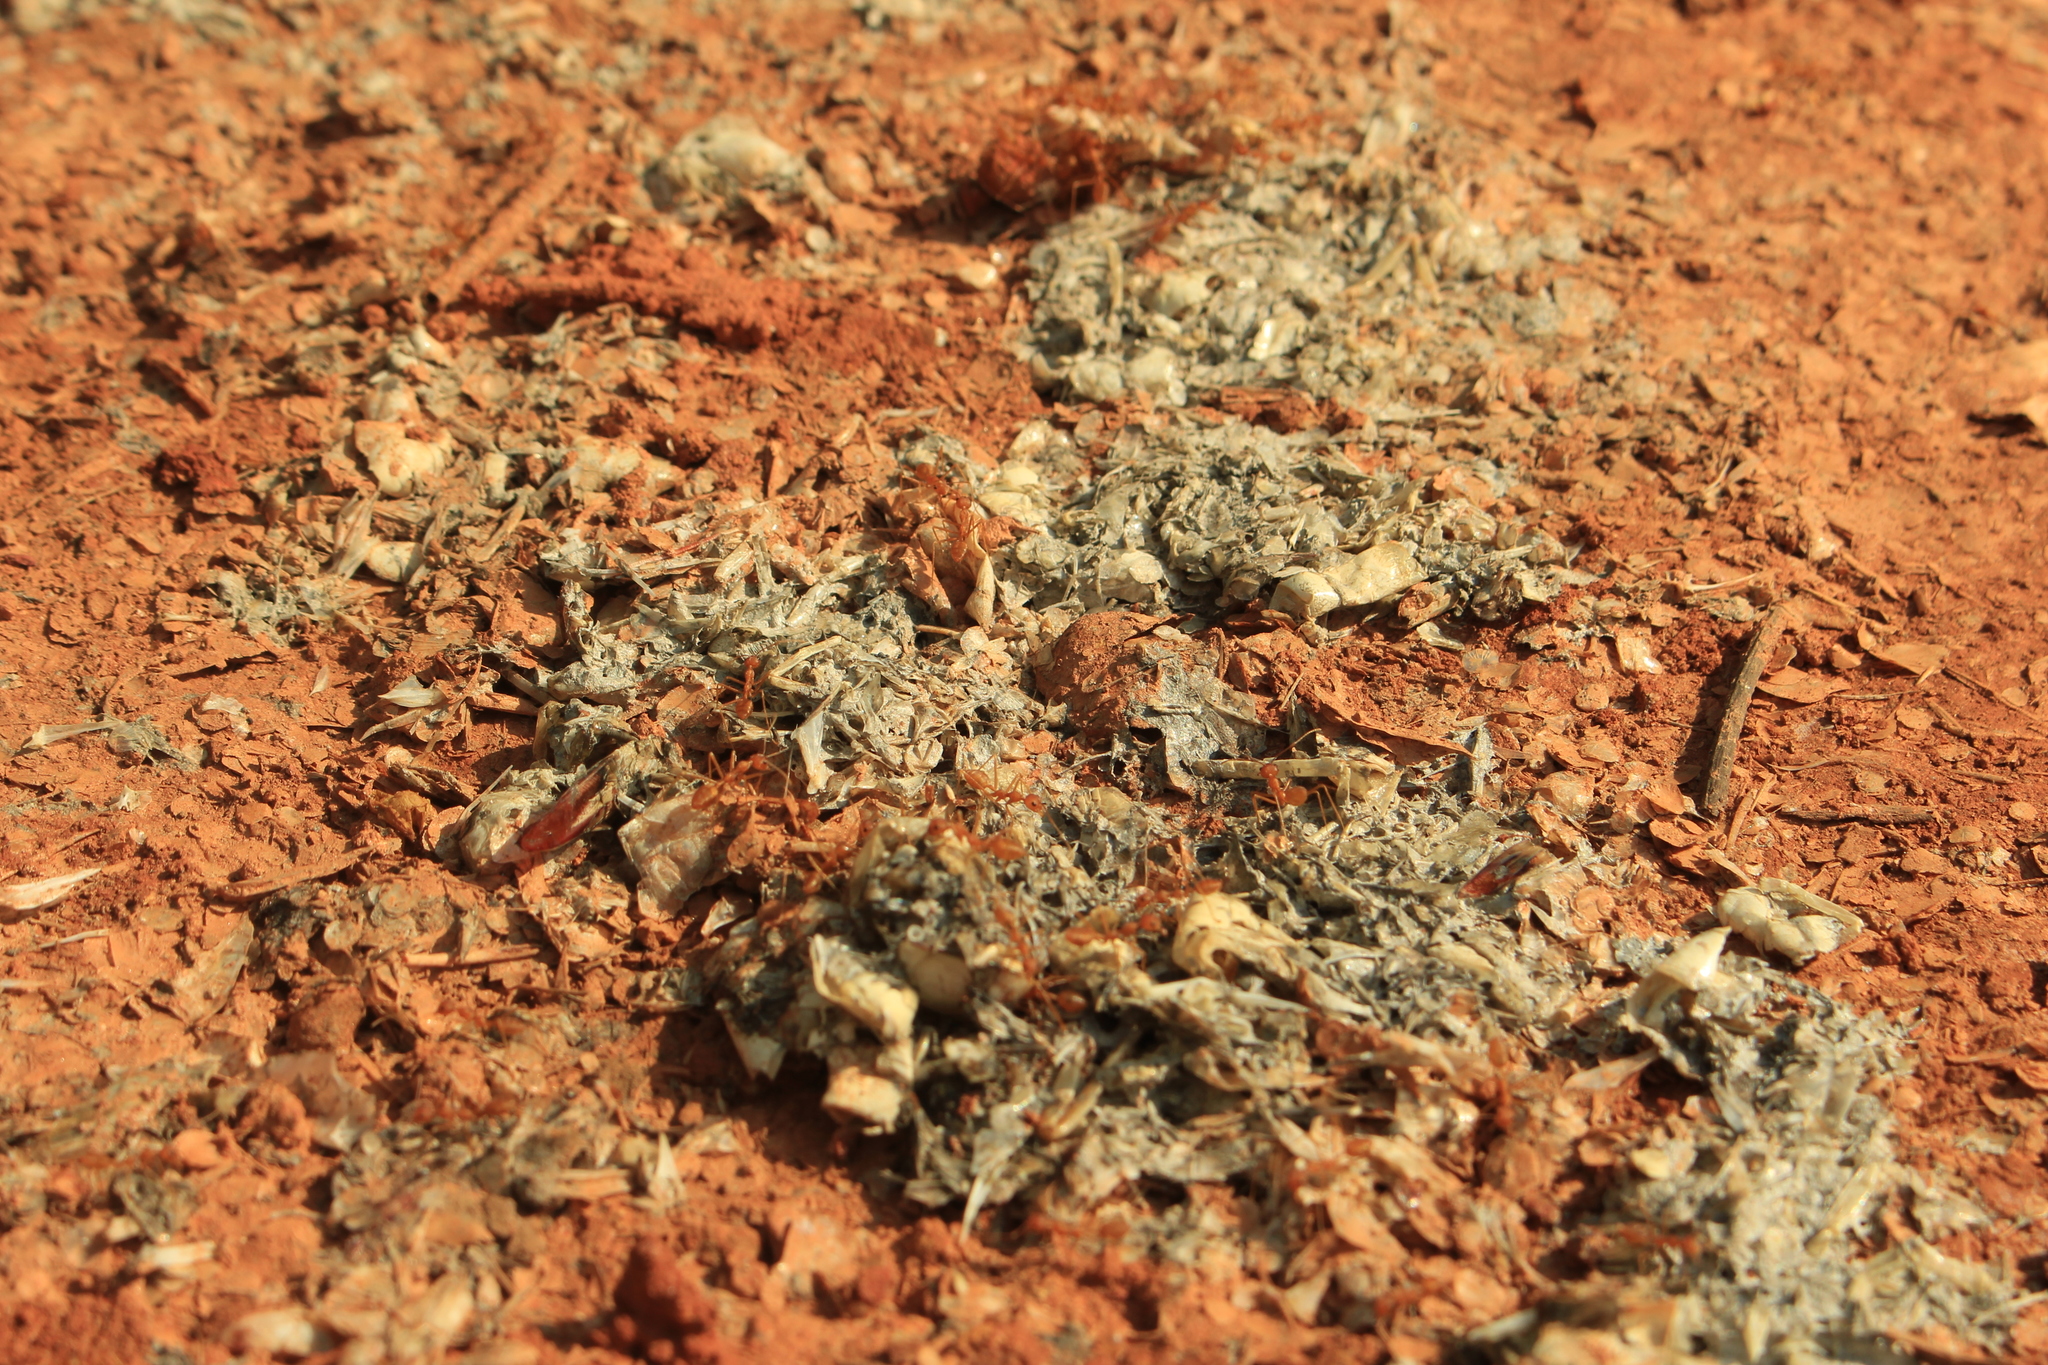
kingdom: Animalia
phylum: Chordata
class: Mammalia
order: Carnivora
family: Mustelidae
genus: Lutrogale
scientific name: Lutrogale perspicillata
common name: Smooth-coated otter
